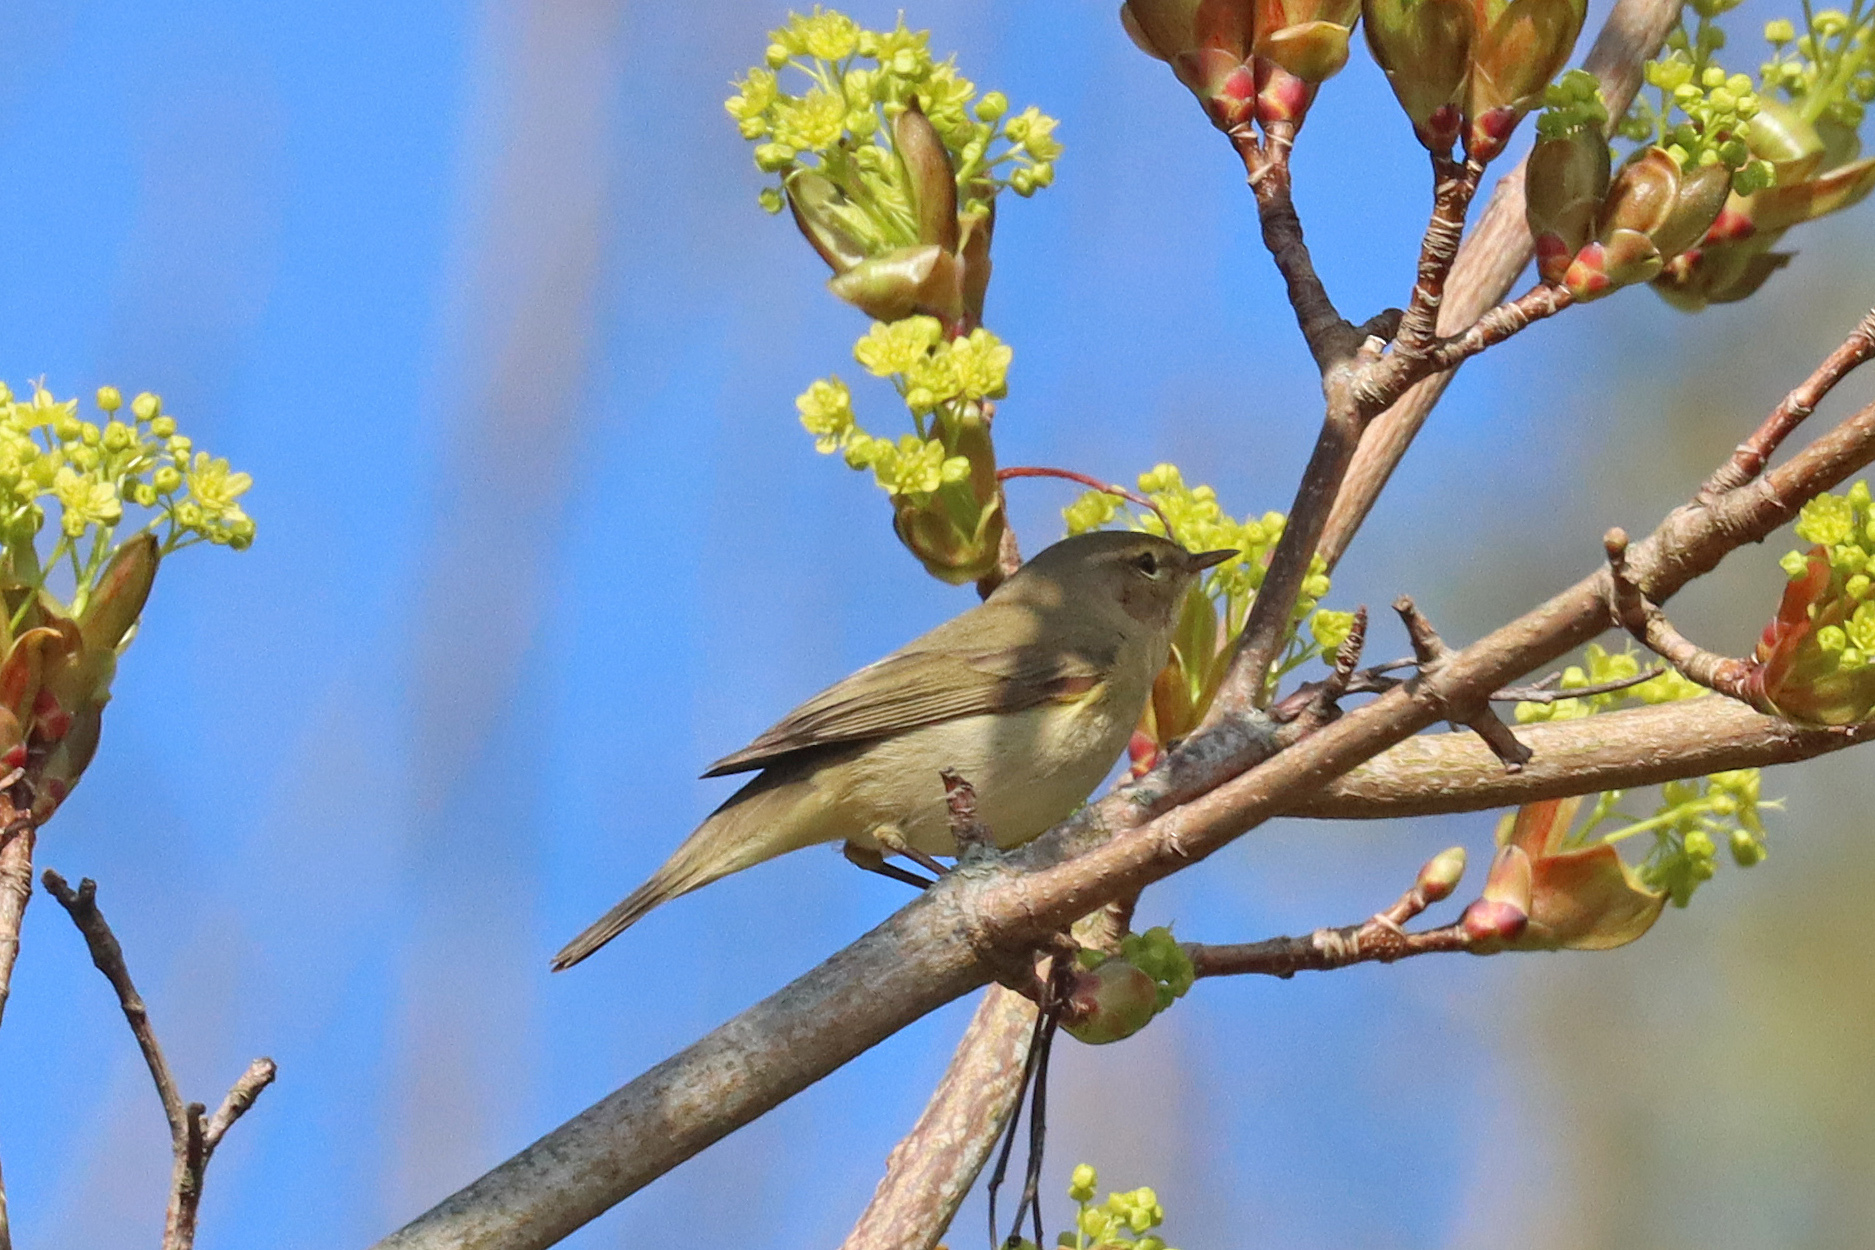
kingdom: Animalia
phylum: Chordata
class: Aves
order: Passeriformes
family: Phylloscopidae
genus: Phylloscopus
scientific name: Phylloscopus collybita
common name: Common chiffchaff
